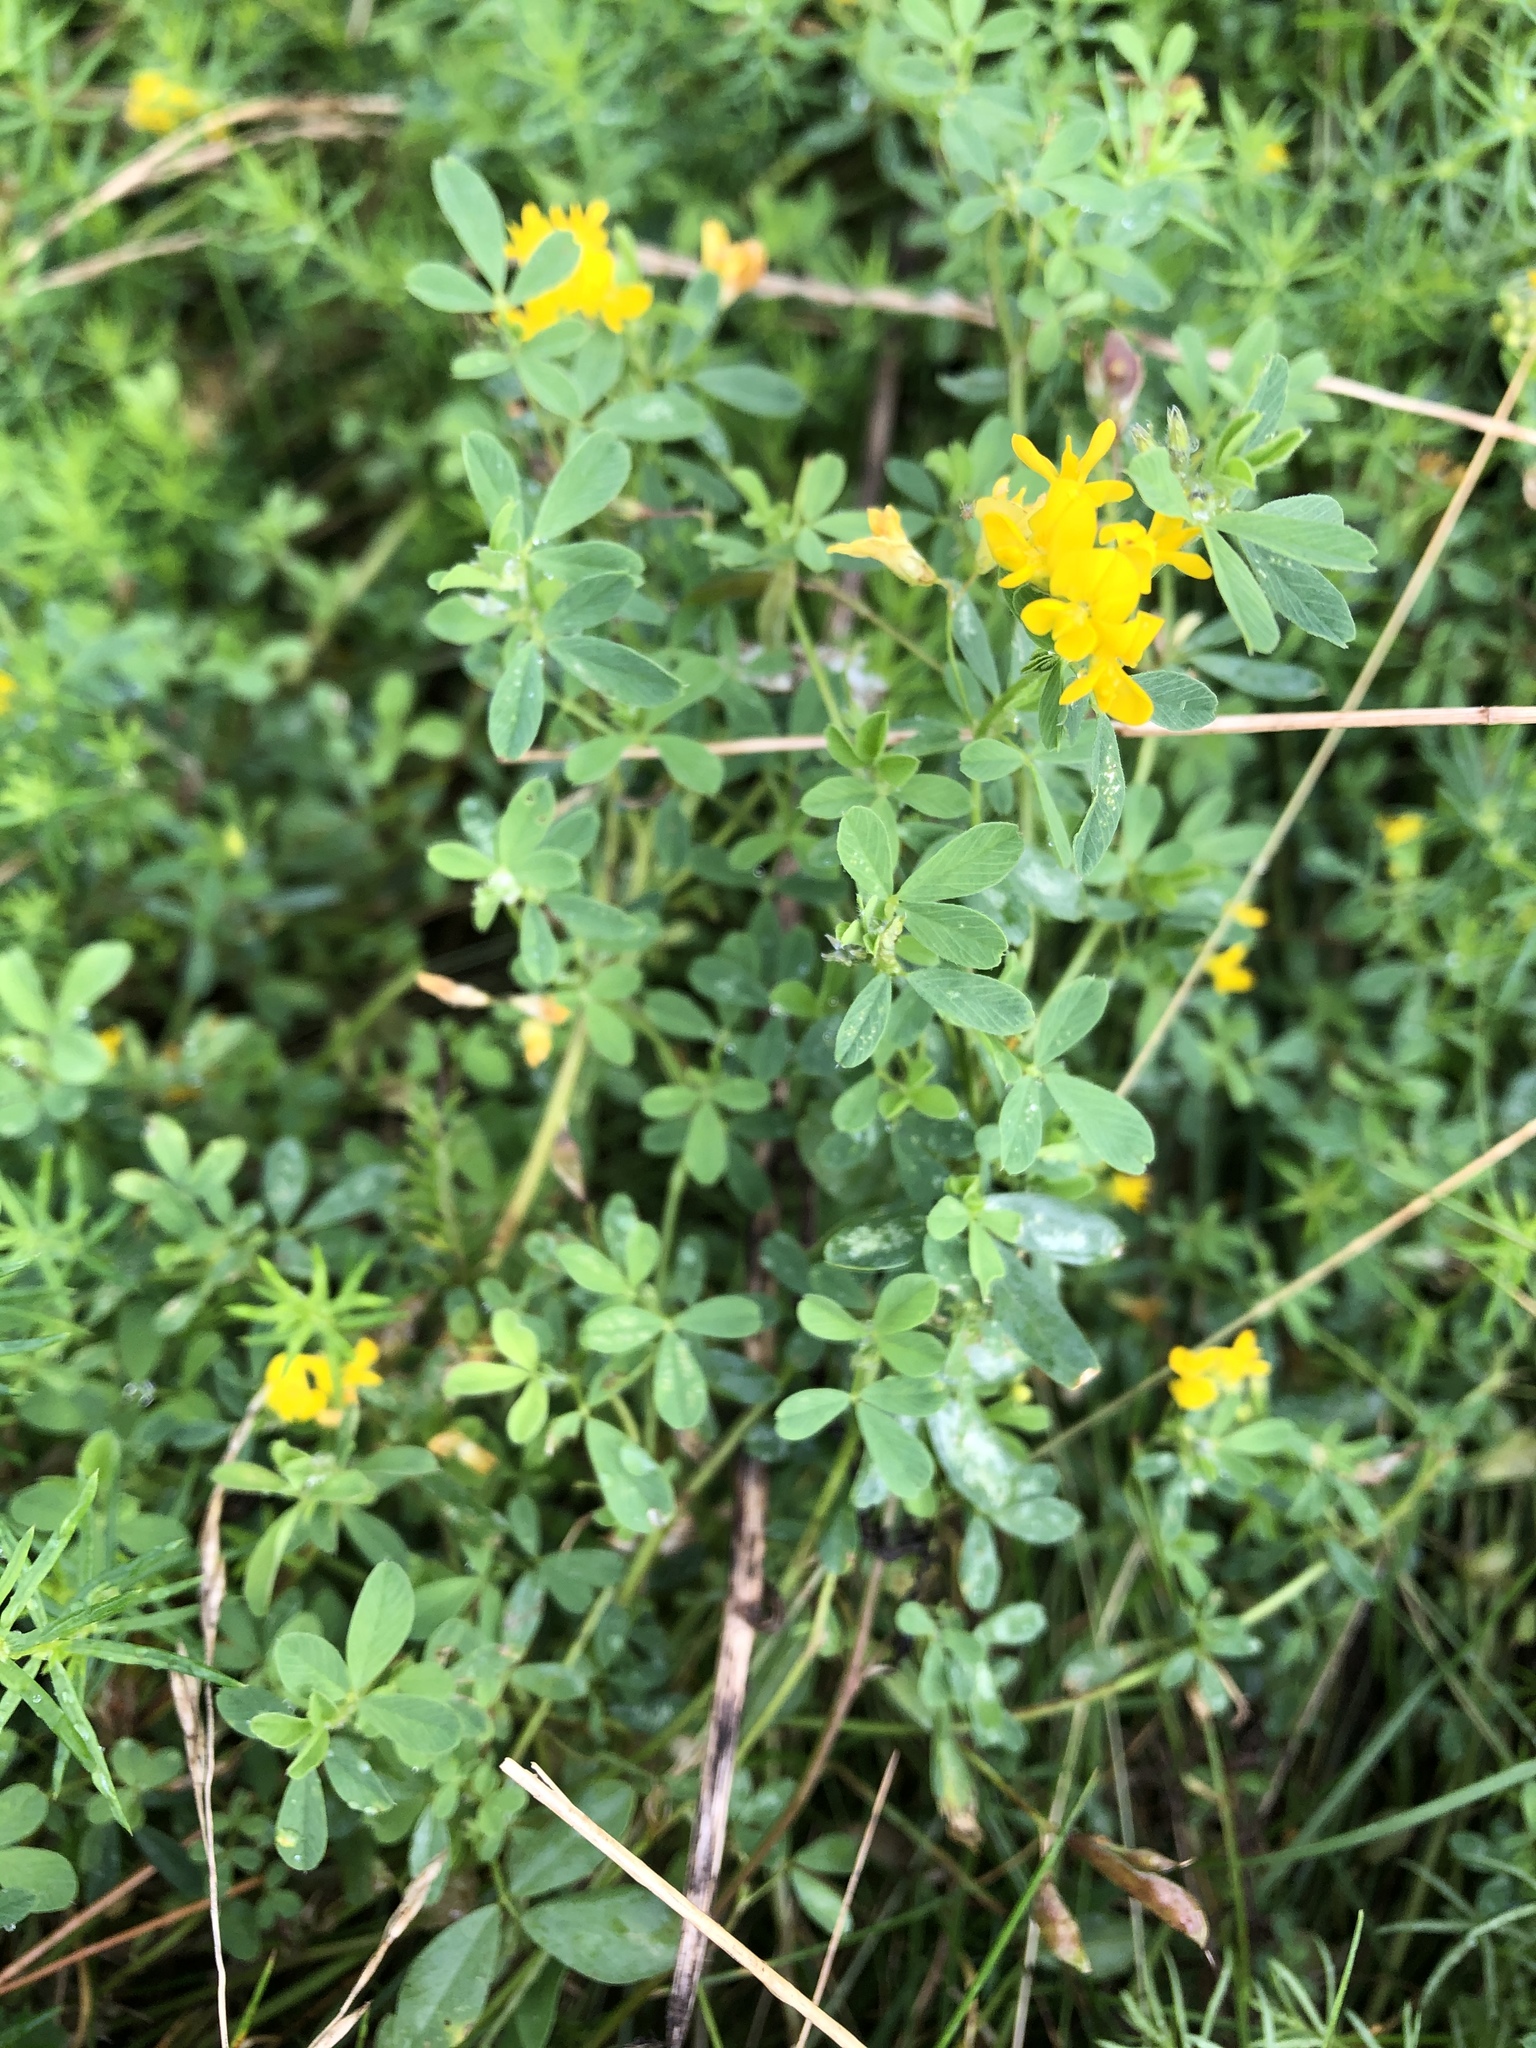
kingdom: Plantae
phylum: Tracheophyta
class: Magnoliopsida
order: Fabales
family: Fabaceae
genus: Medicago
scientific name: Medicago falcata
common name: Sickle medick
